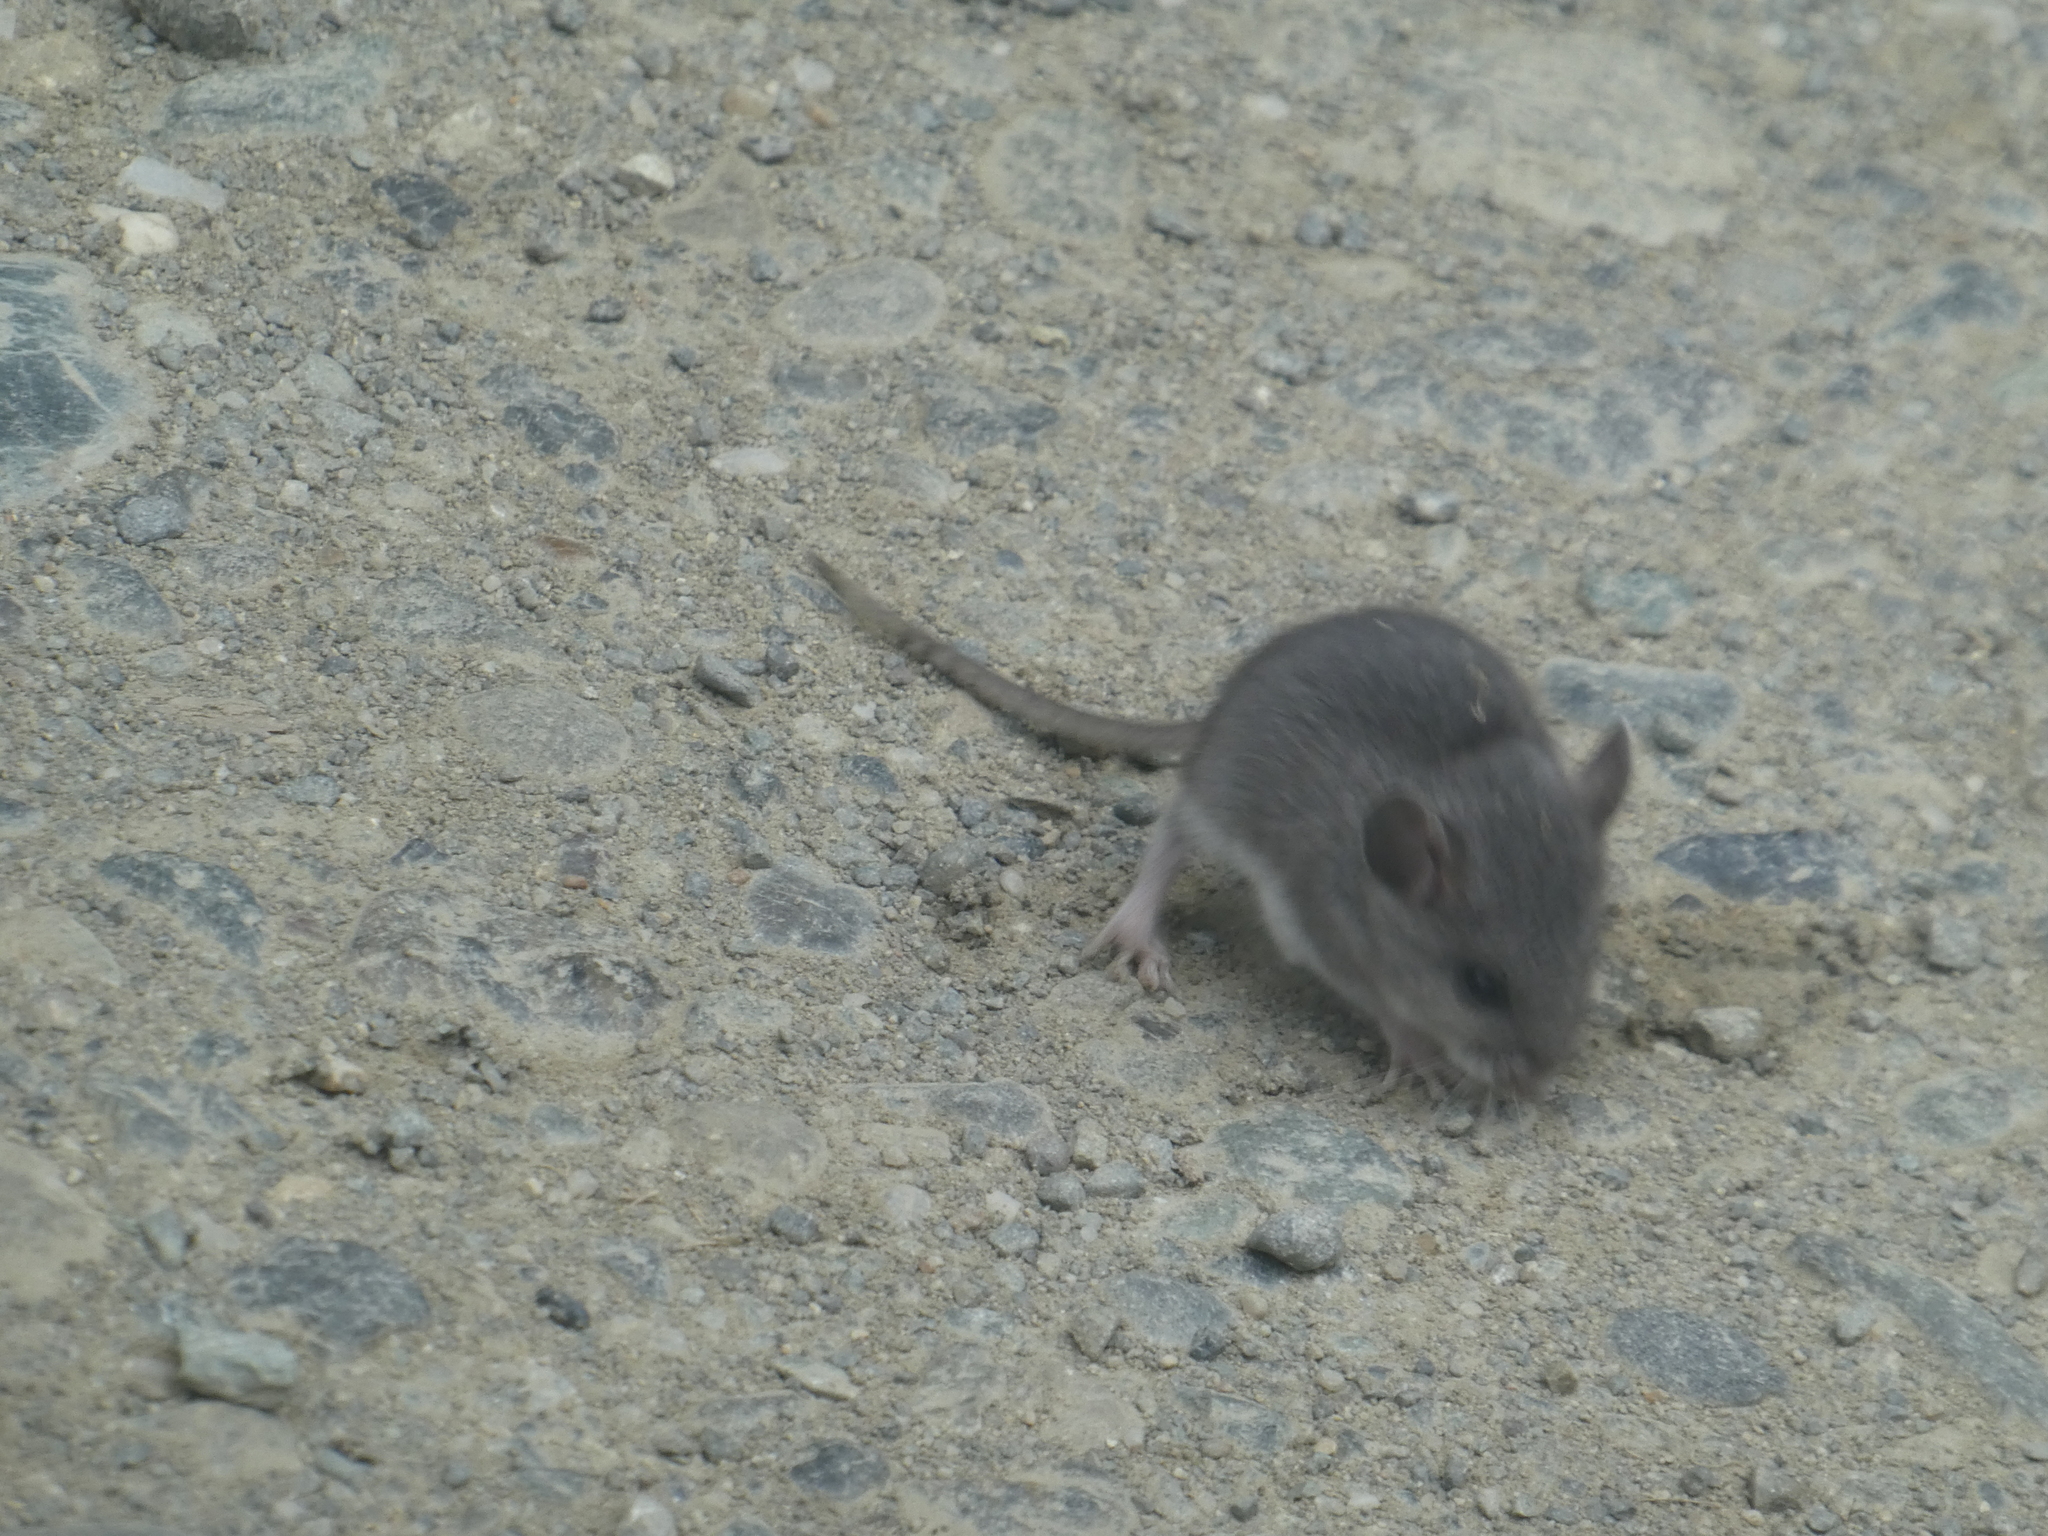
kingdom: Animalia
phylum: Chordata
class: Mammalia
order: Rodentia
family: Cricetidae
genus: Peromyscus
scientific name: Peromyscus maniculatus
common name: Deer mouse
